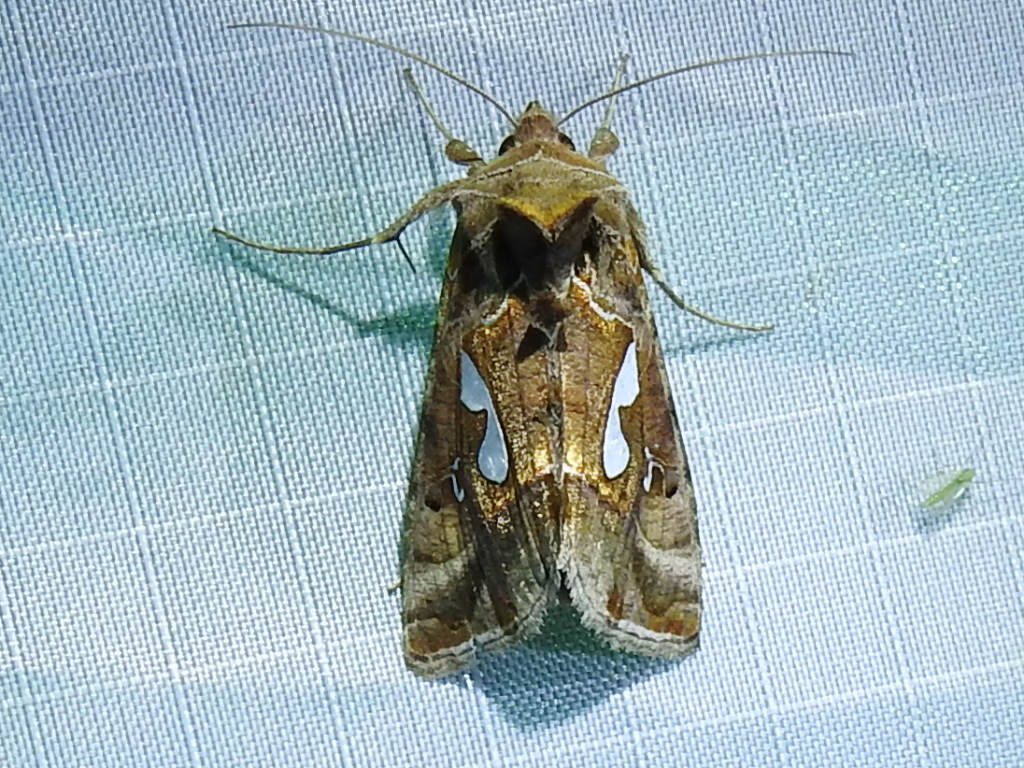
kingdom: Animalia
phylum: Arthropoda
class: Insecta
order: Lepidoptera
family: Noctuidae
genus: Megalographa
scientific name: Megalographa biloba
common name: Cutworm
